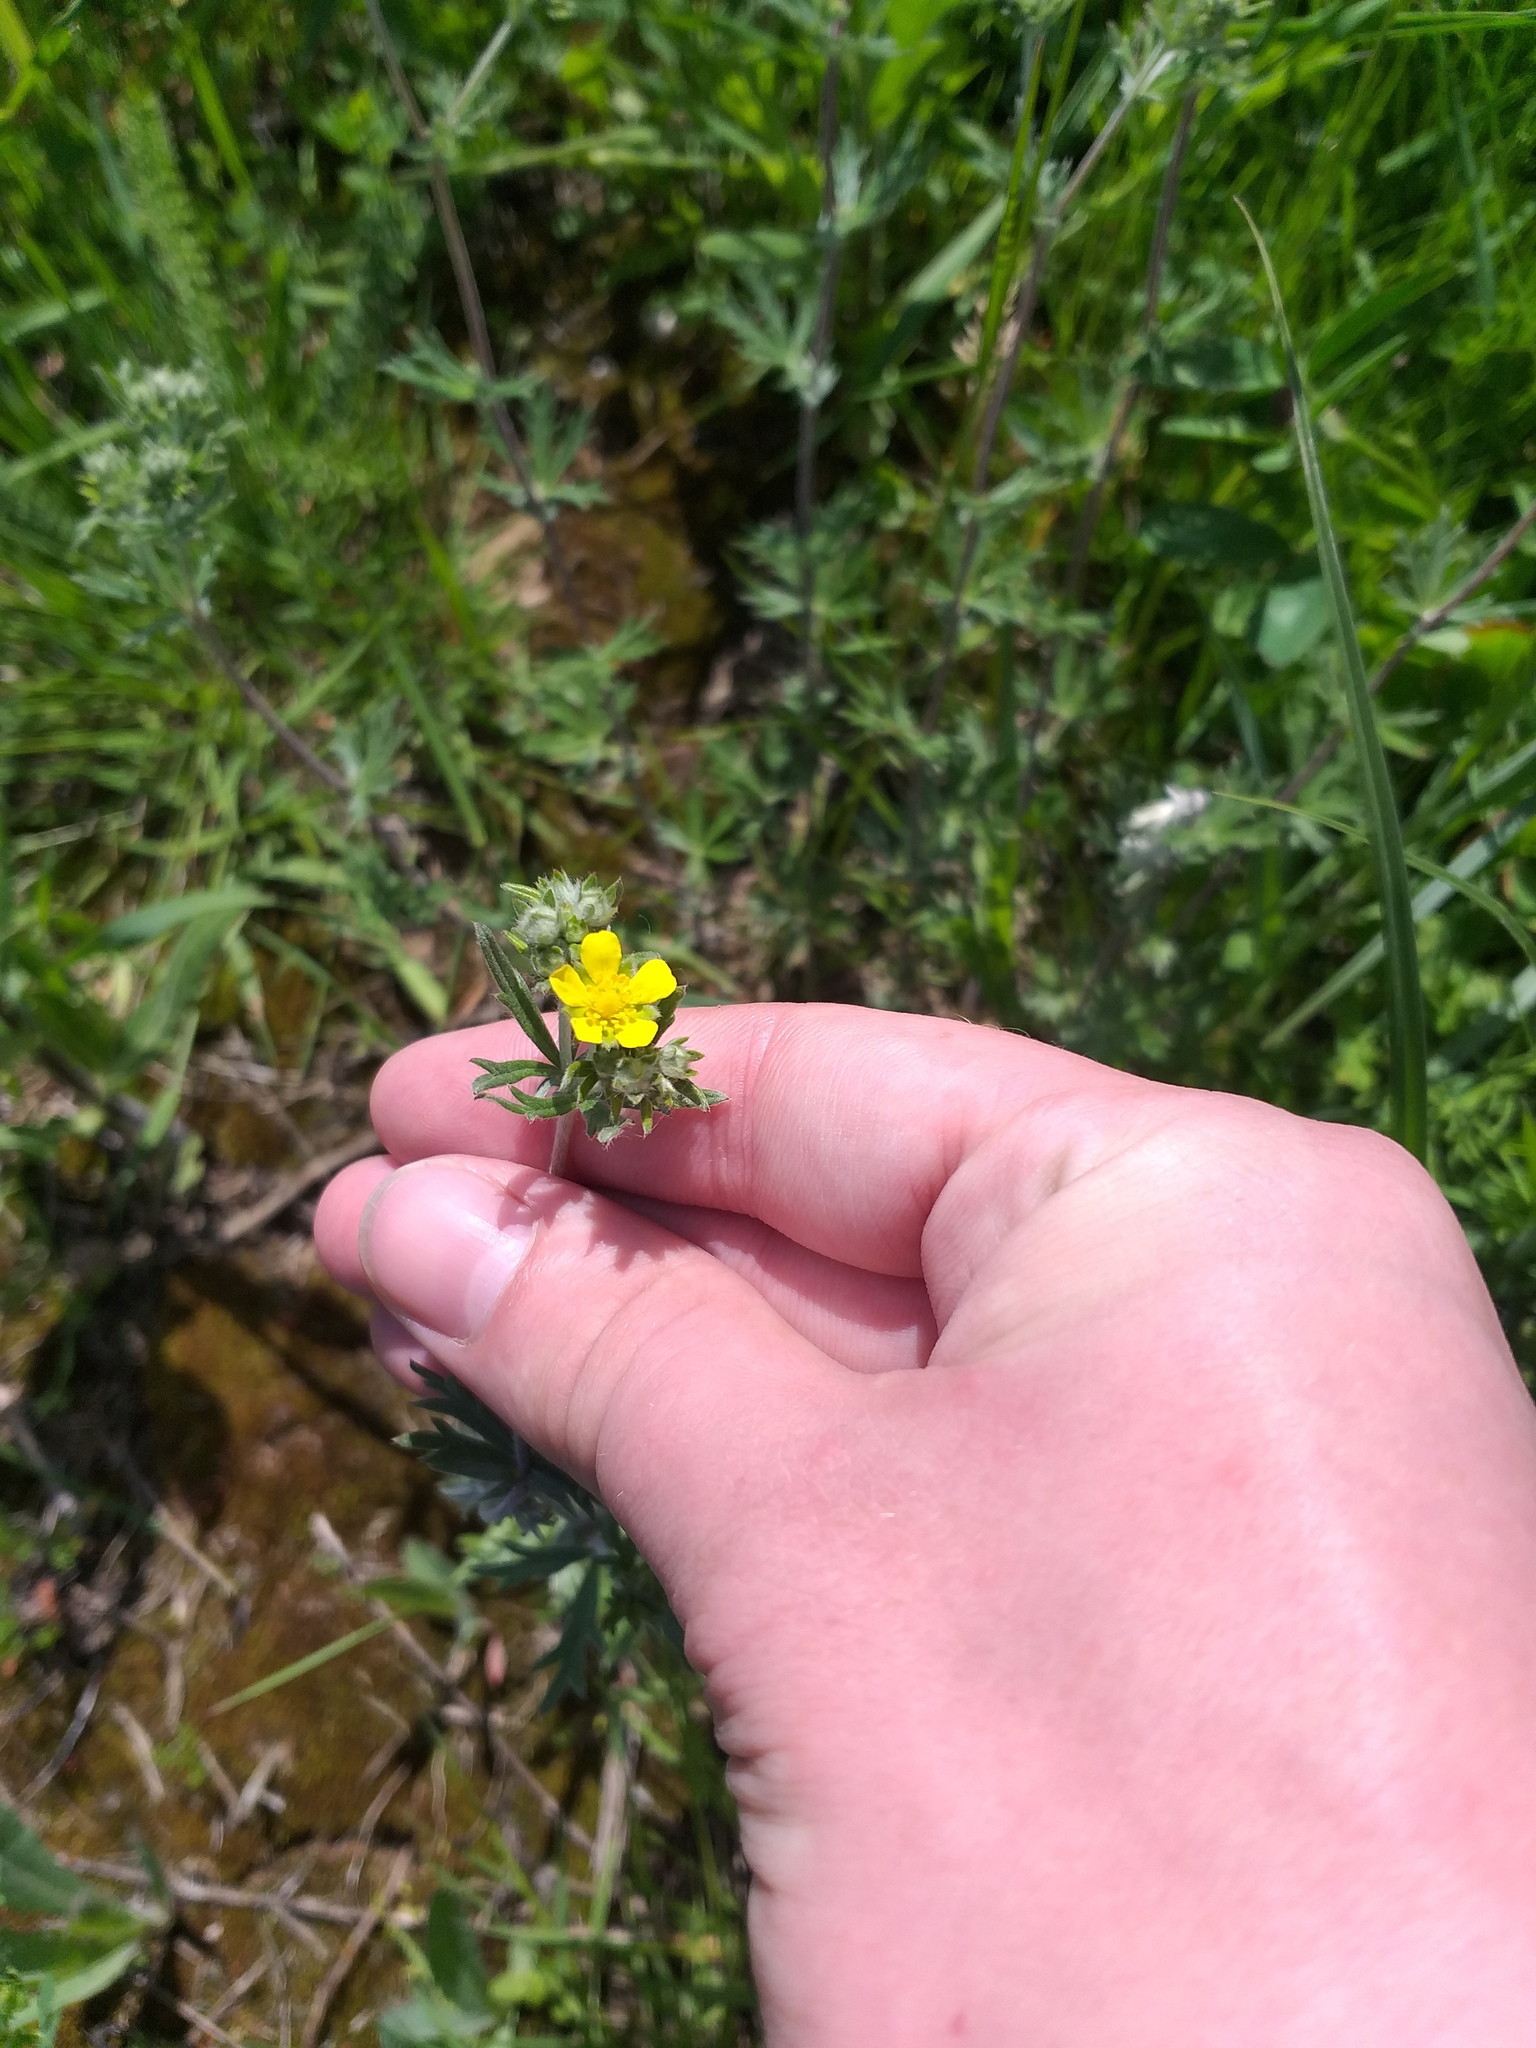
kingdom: Plantae
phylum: Tracheophyta
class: Magnoliopsida
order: Rosales
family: Rosaceae
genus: Potentilla
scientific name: Potentilla argentea
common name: Hoary cinquefoil
